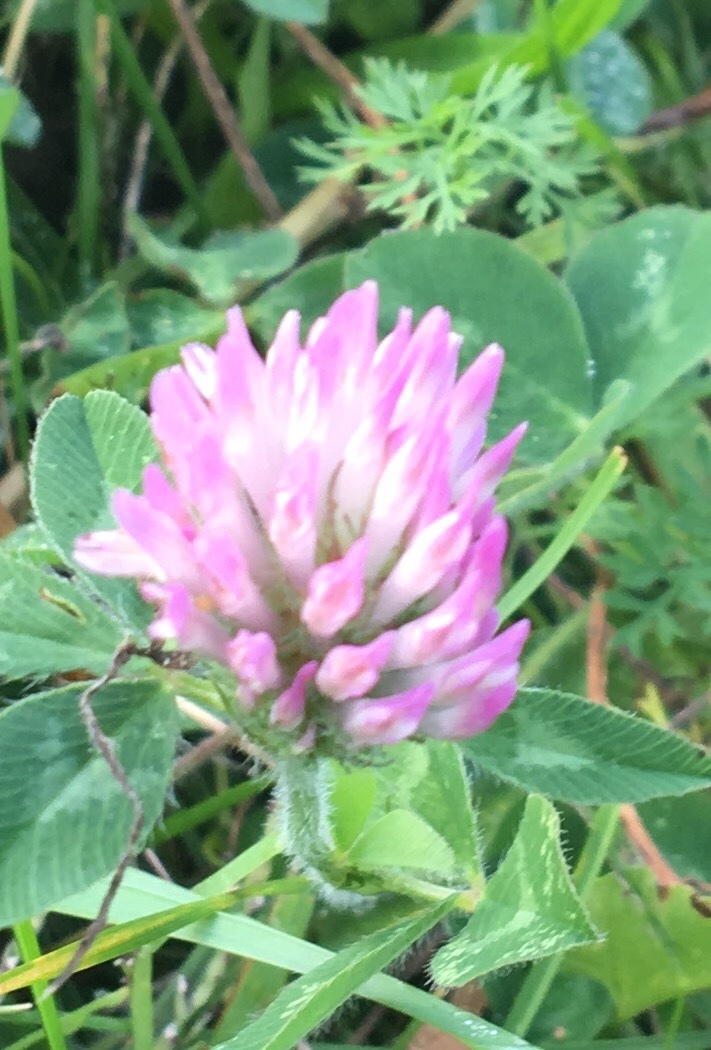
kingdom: Plantae
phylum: Tracheophyta
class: Magnoliopsida
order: Fabales
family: Fabaceae
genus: Trifolium
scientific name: Trifolium pratense
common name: Red clover
